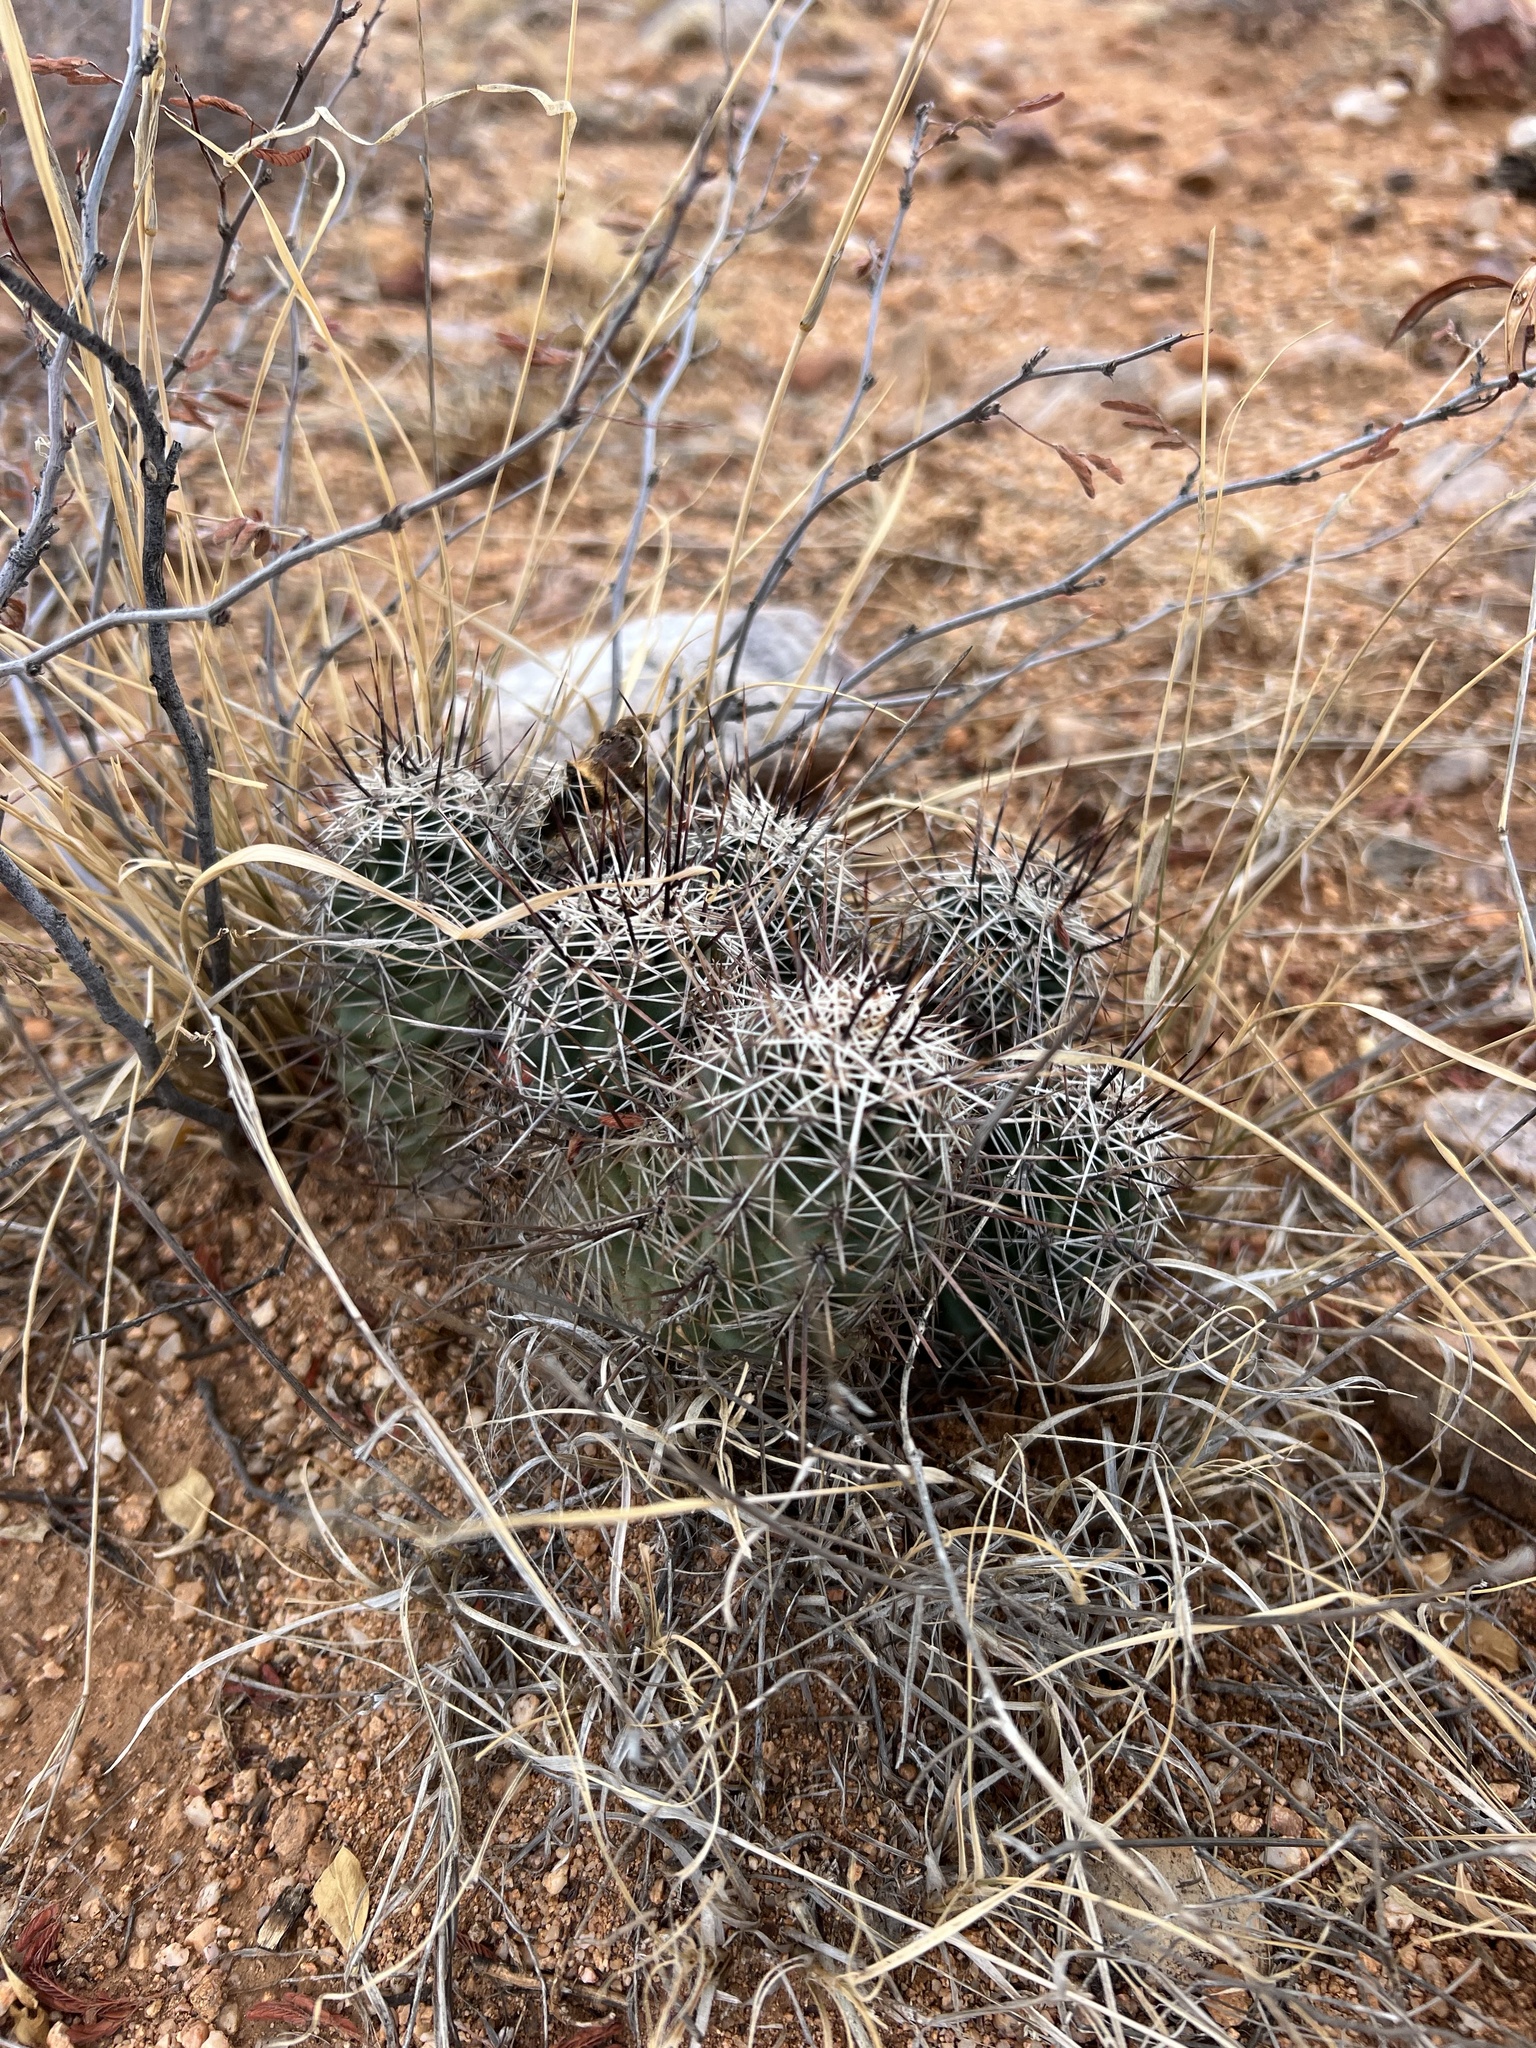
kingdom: Plantae
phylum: Tracheophyta
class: Magnoliopsida
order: Caryophyllales
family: Cactaceae
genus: Echinocereus
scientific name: Echinocereus fasciculatus
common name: Bundle hedgehog
